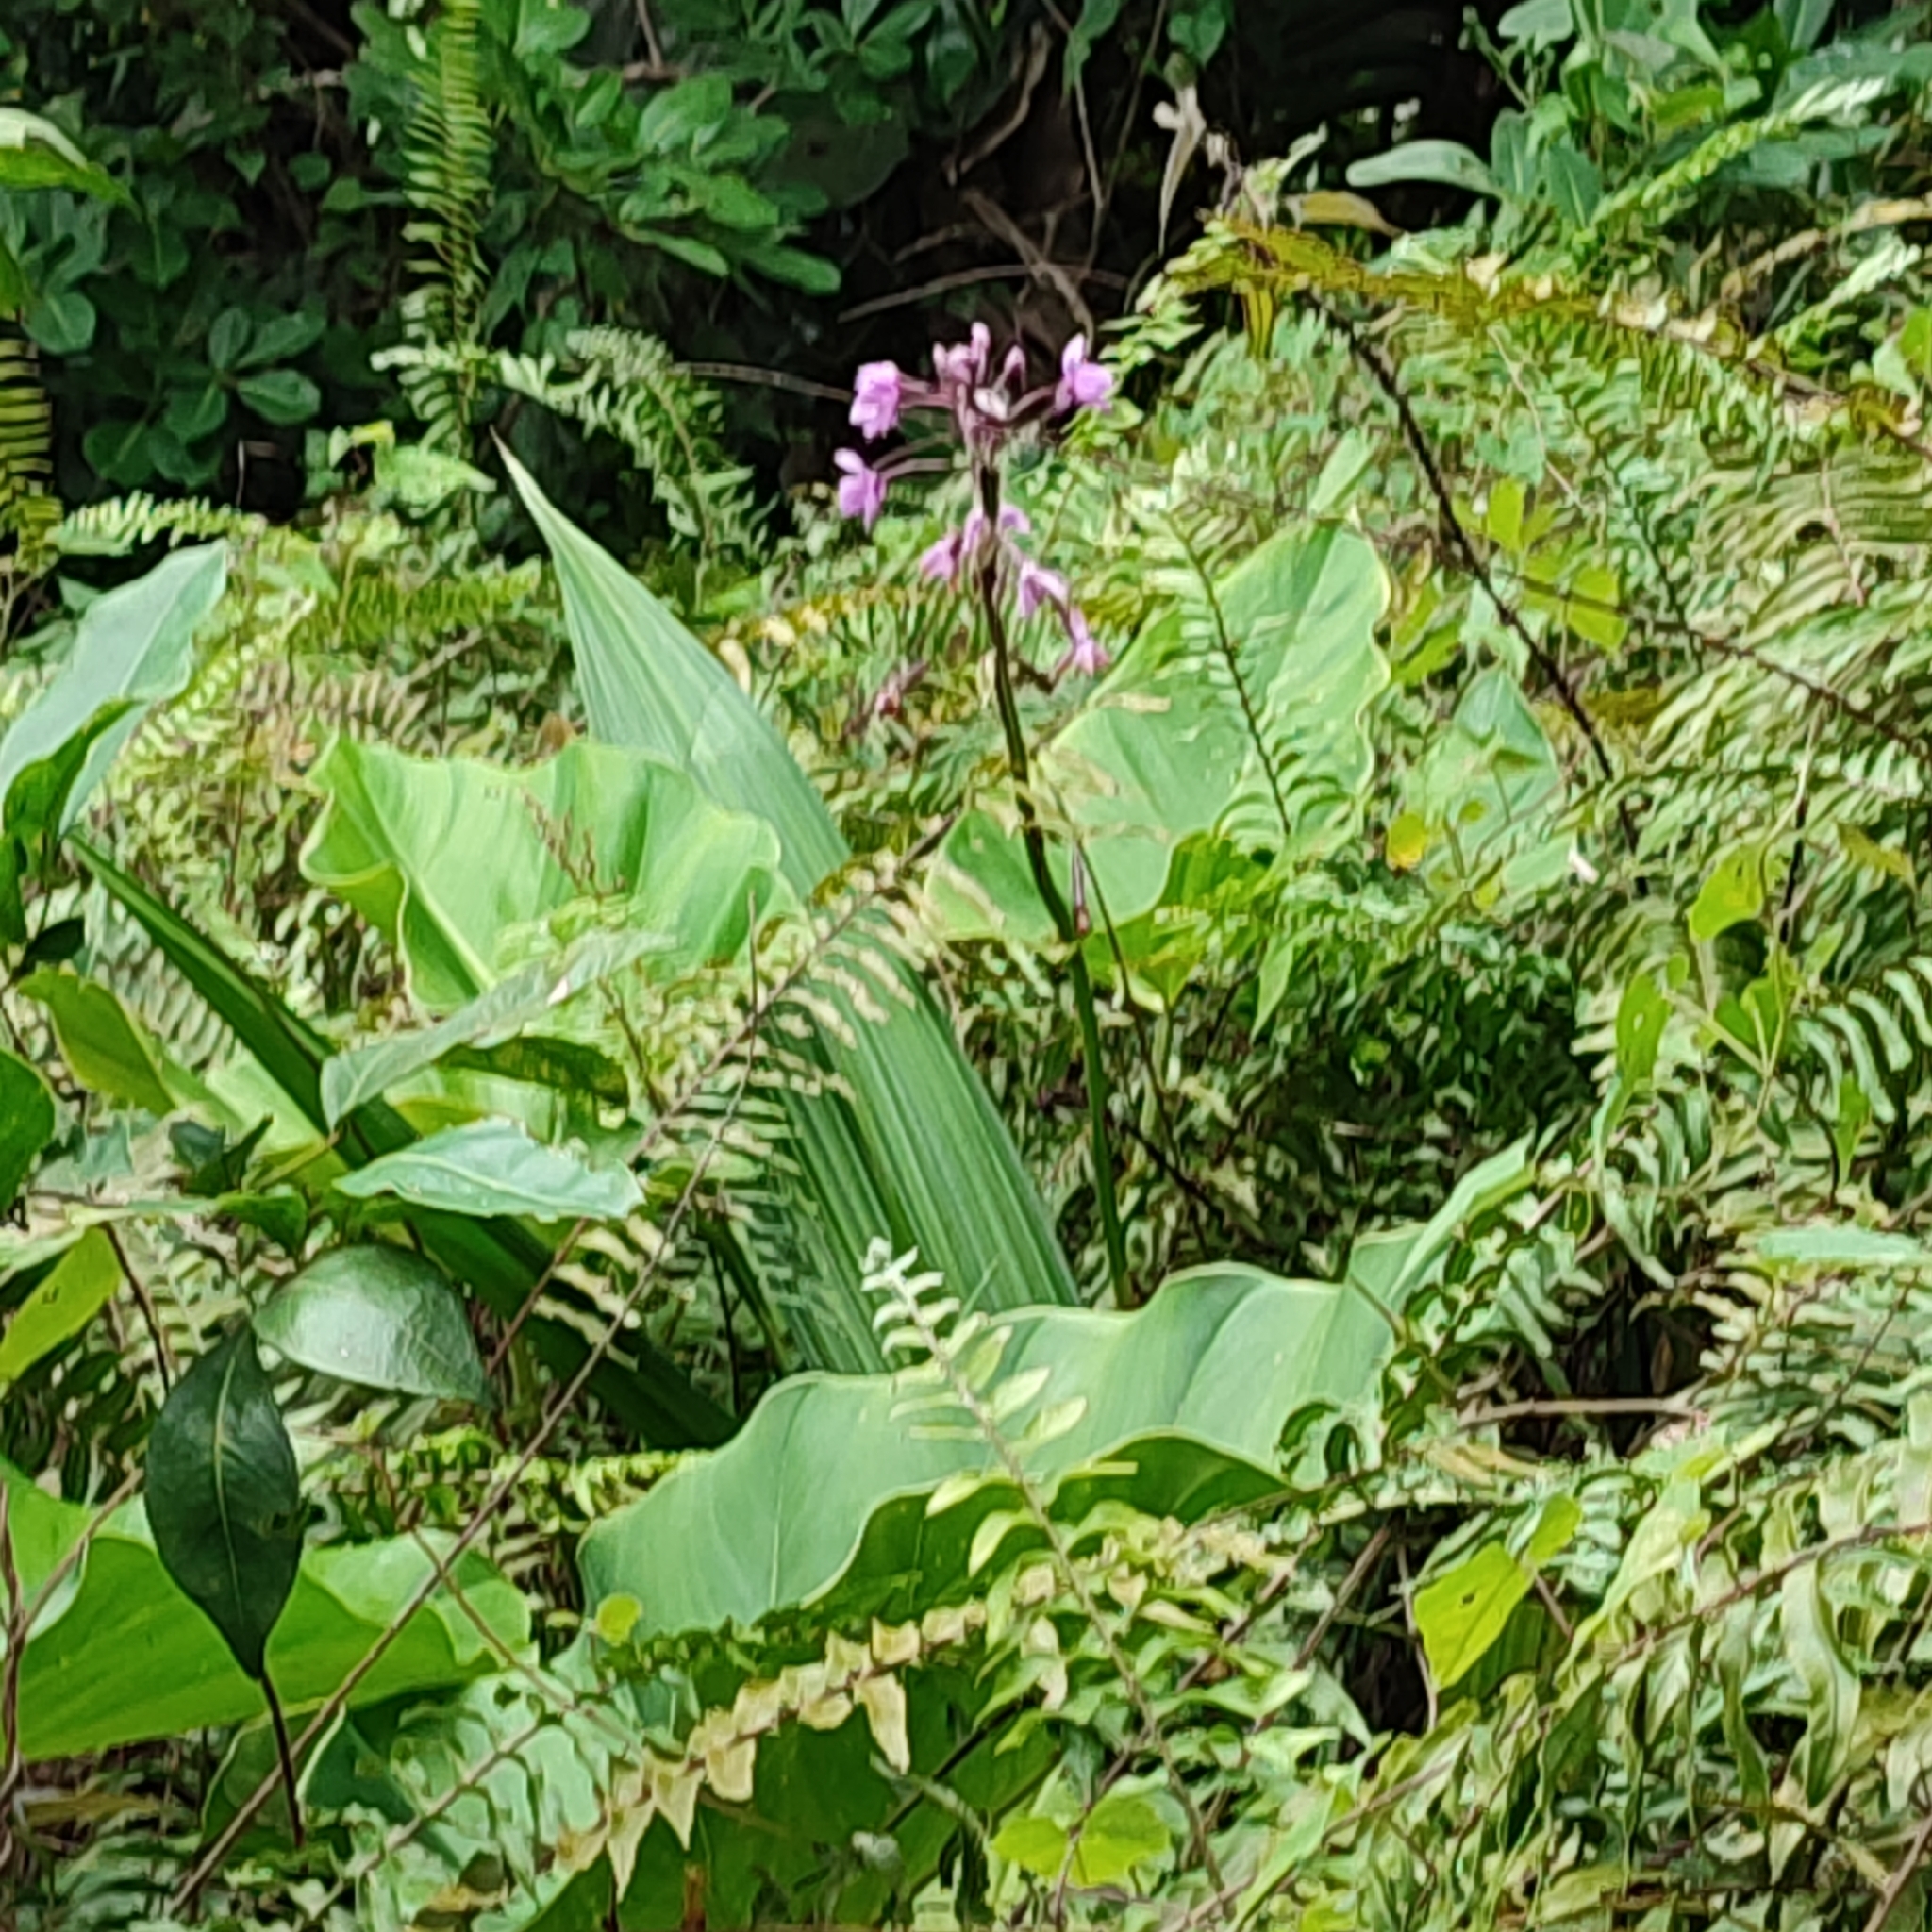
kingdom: Plantae
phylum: Tracheophyta
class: Liliopsida
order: Asparagales
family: Orchidaceae
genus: Spathoglottis
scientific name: Spathoglottis plicata
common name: Philippine ground orchid
